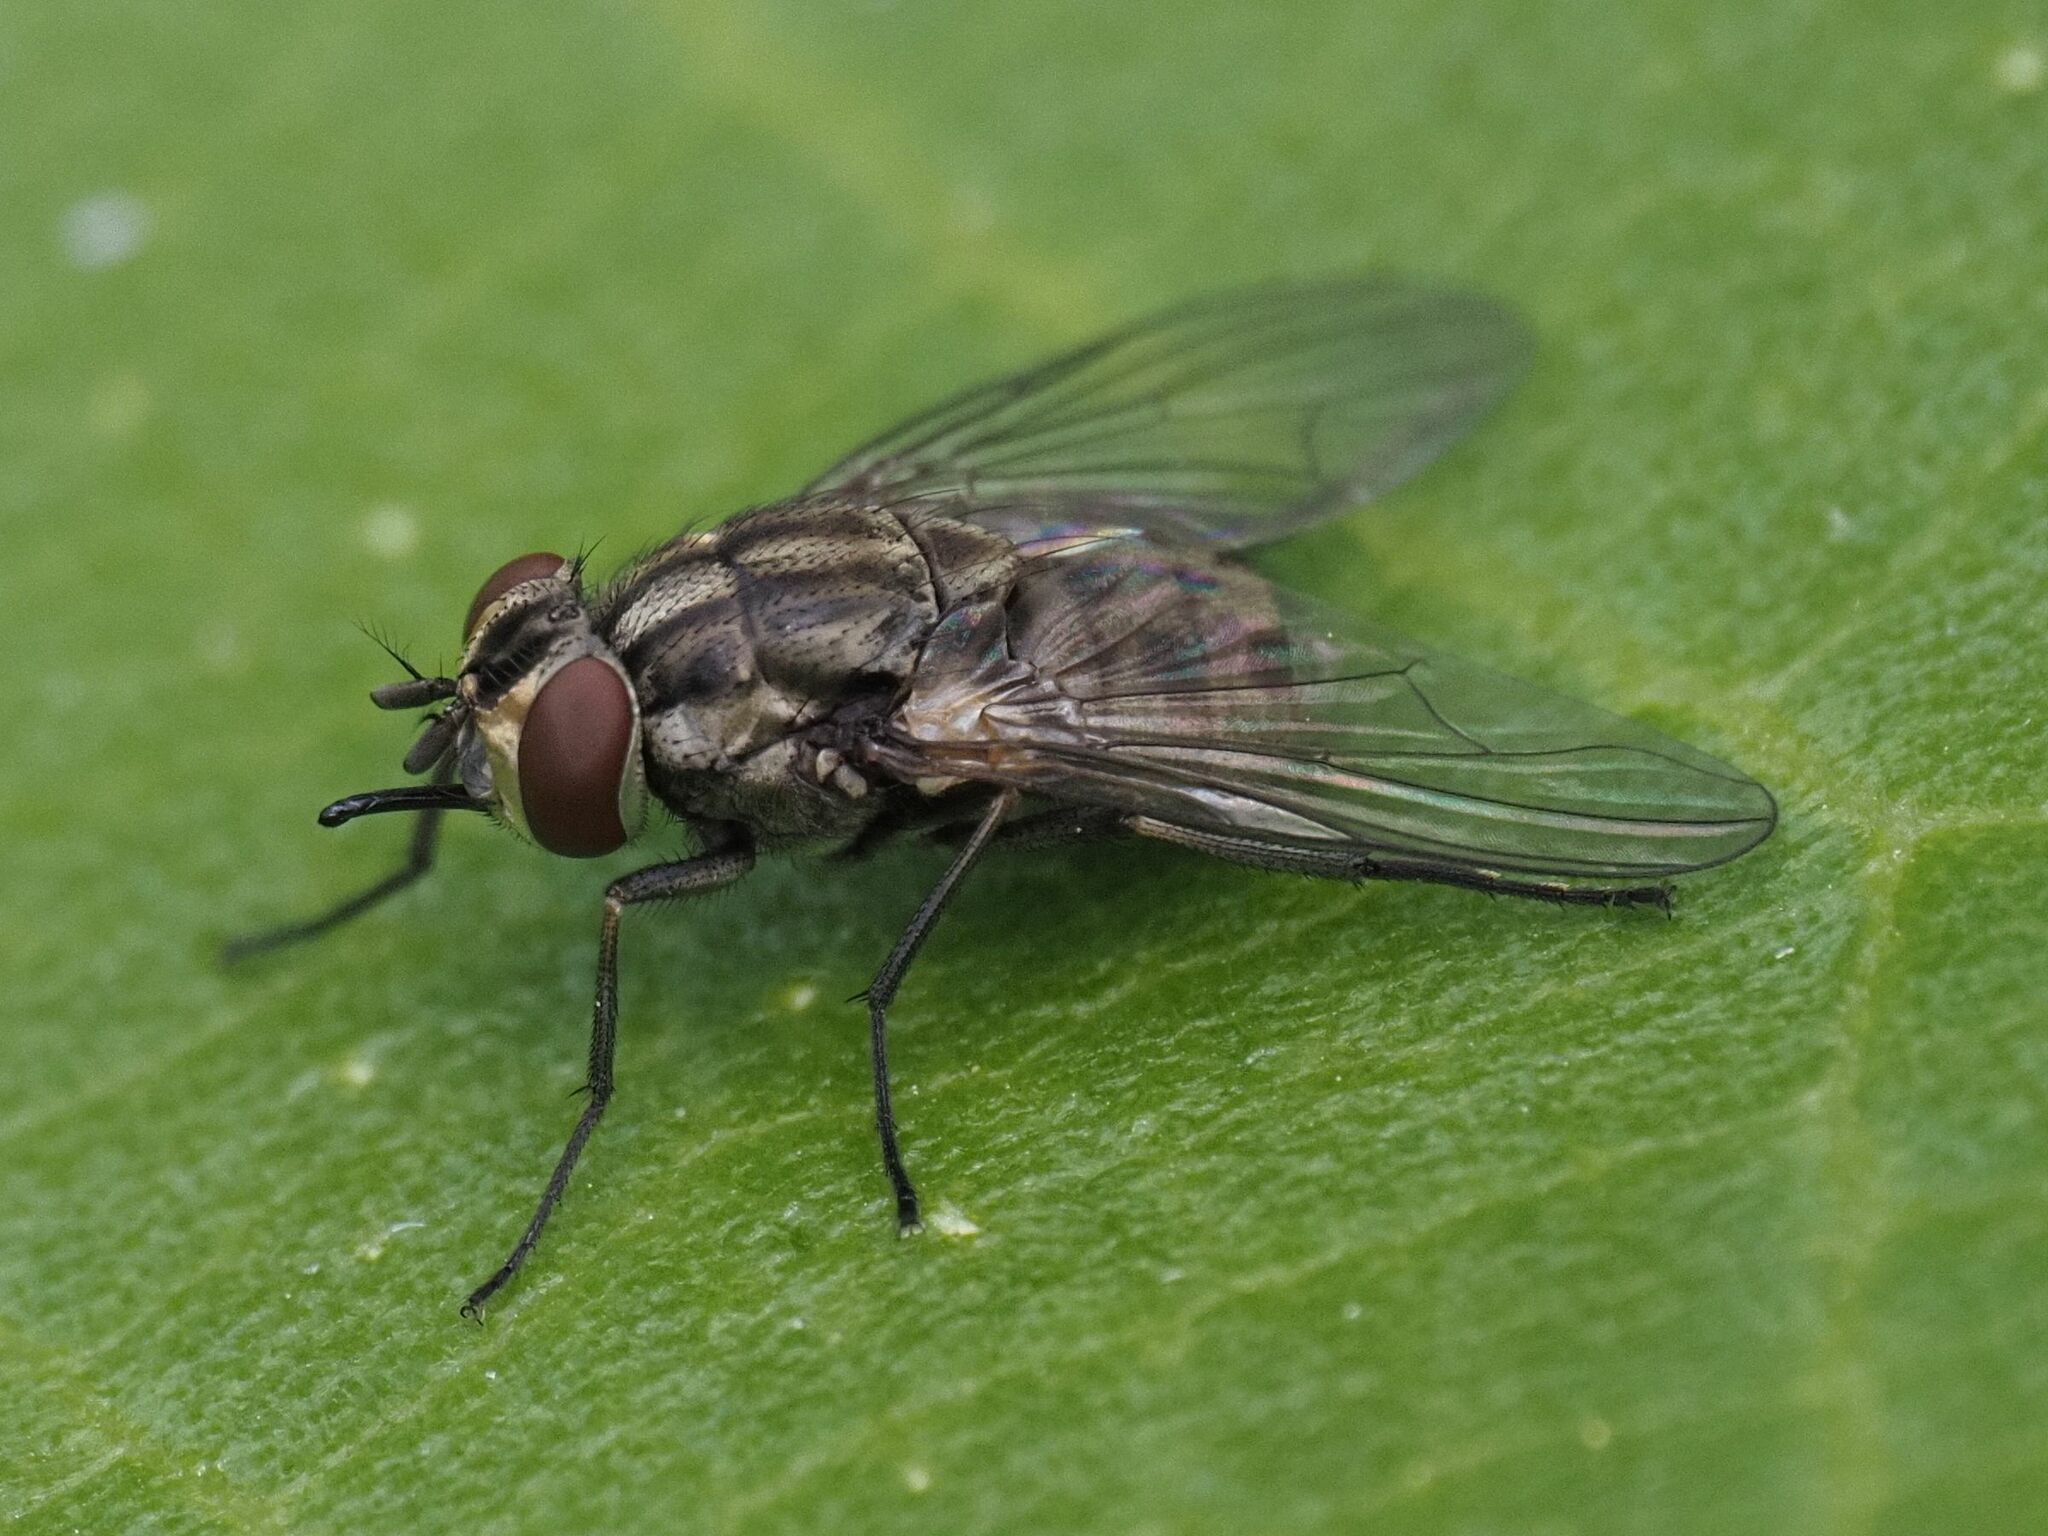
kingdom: Animalia
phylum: Arthropoda
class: Insecta
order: Diptera
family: Muscidae
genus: Stomoxys
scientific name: Stomoxys calcitrans
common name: Stable fly
